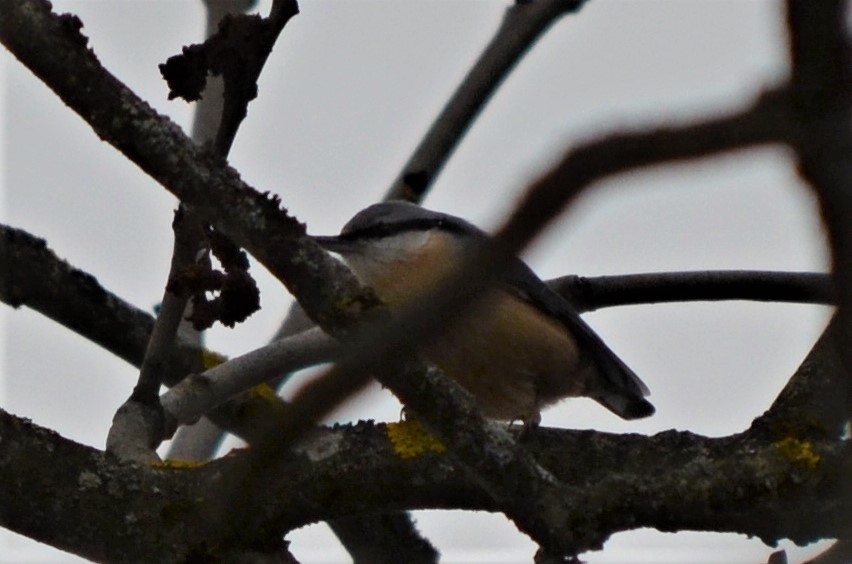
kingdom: Animalia
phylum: Chordata
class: Aves
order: Passeriformes
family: Sittidae
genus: Sitta
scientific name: Sitta europaea
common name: Eurasian nuthatch
